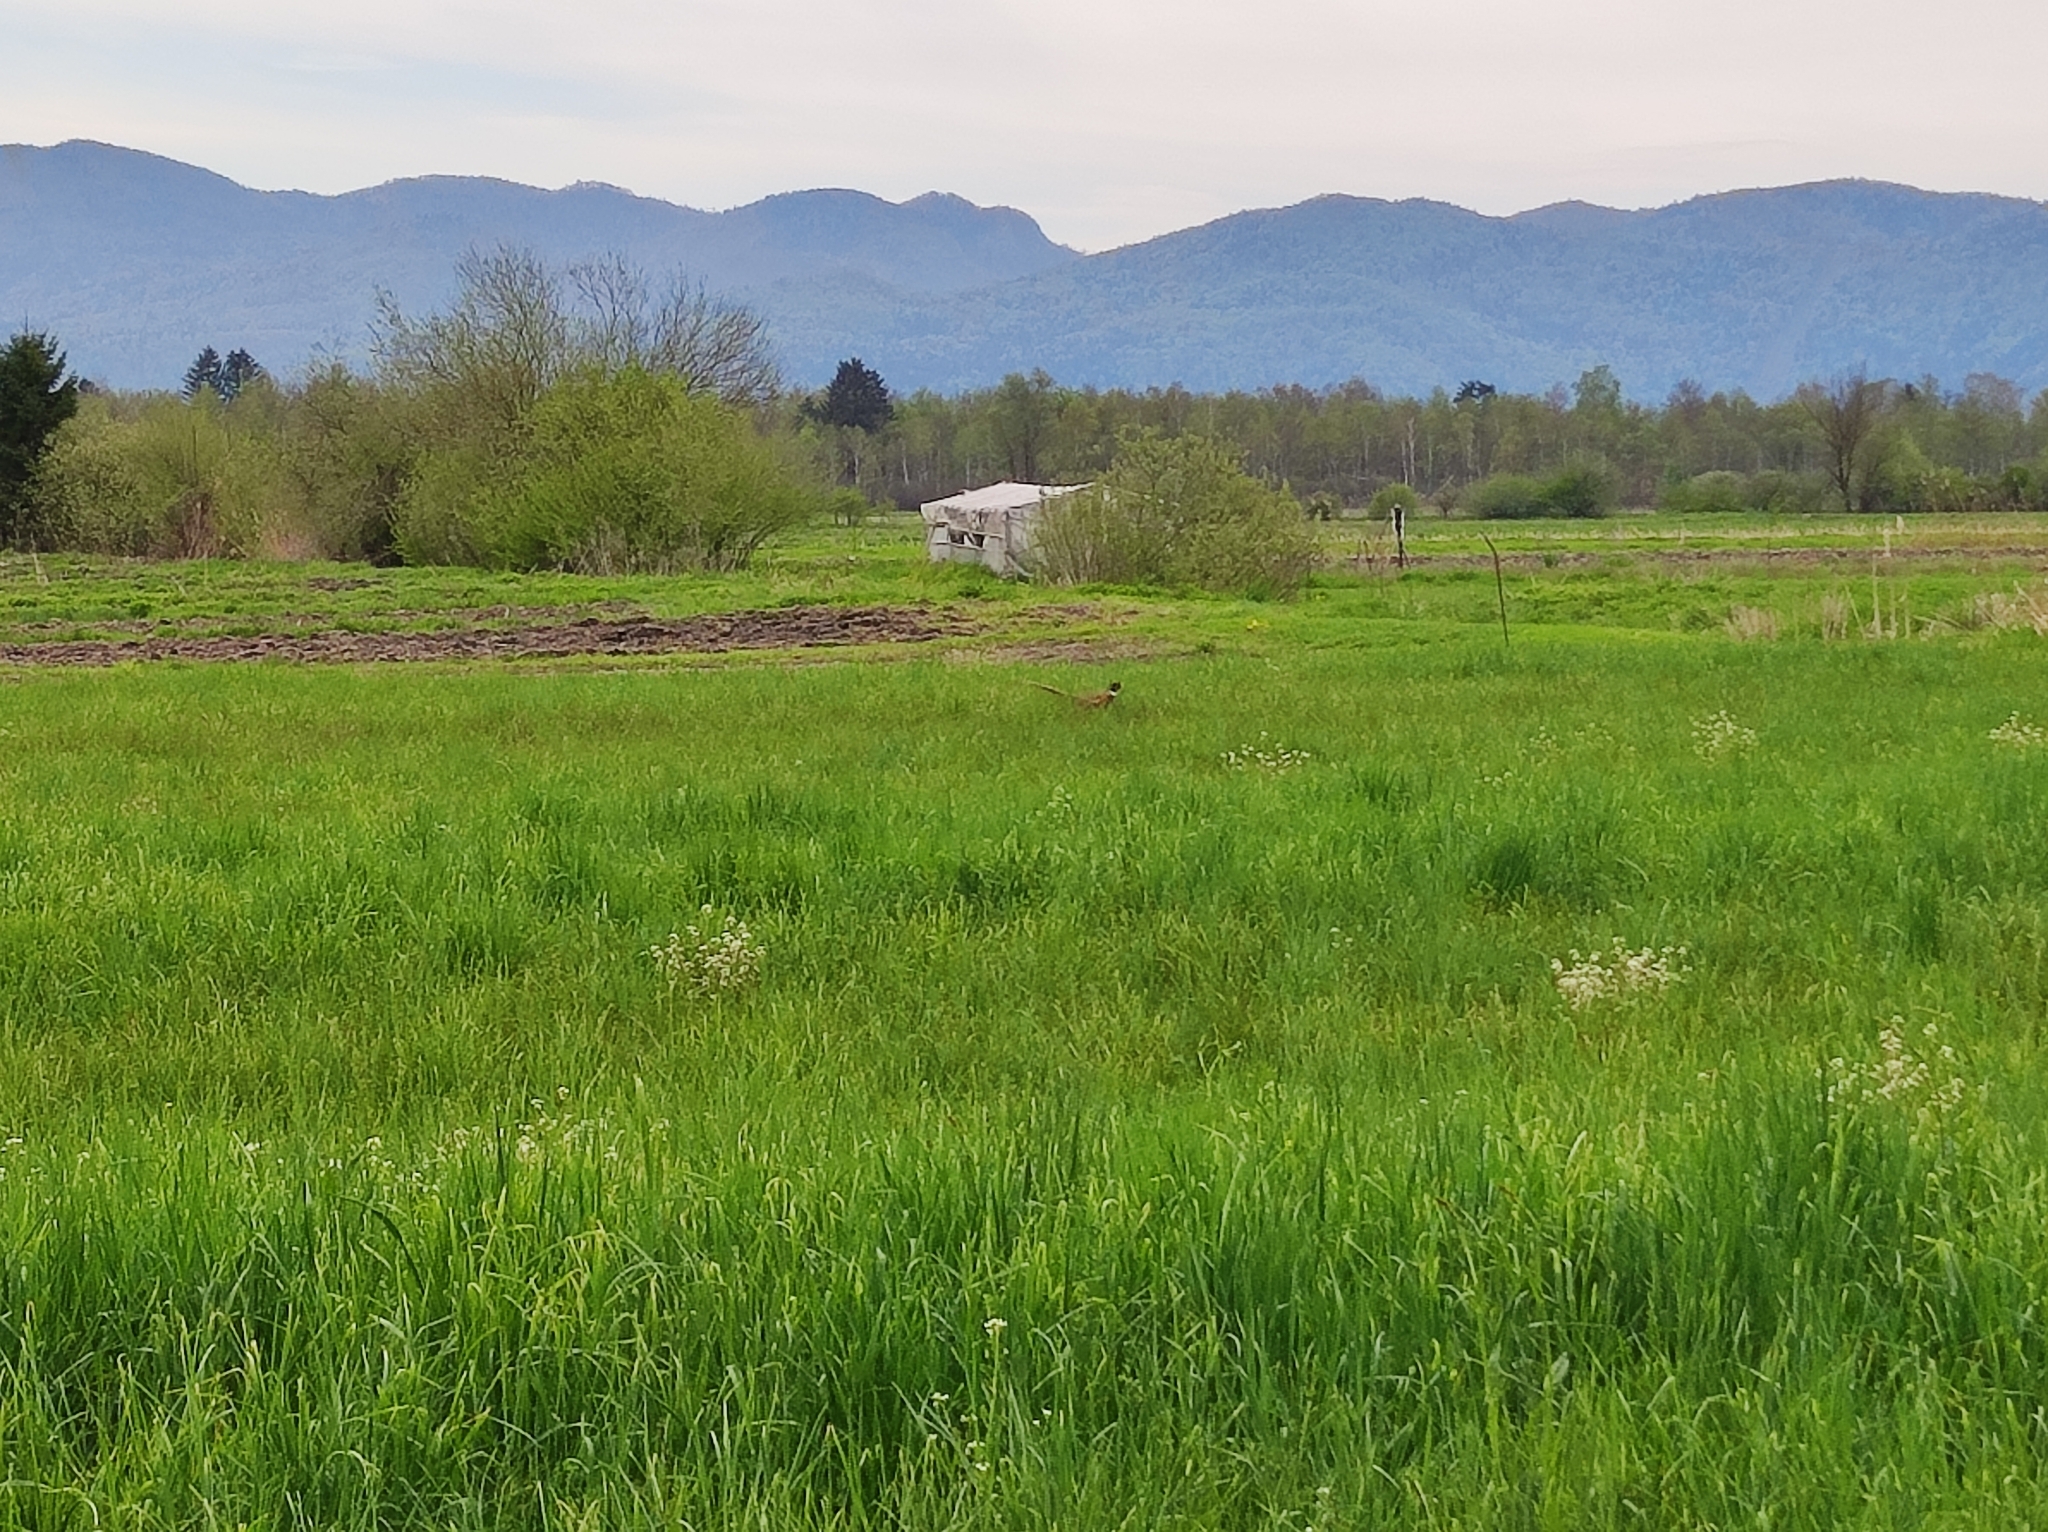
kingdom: Animalia
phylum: Chordata
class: Aves
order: Galliformes
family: Phasianidae
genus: Phasianus
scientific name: Phasianus colchicus
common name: Common pheasant
